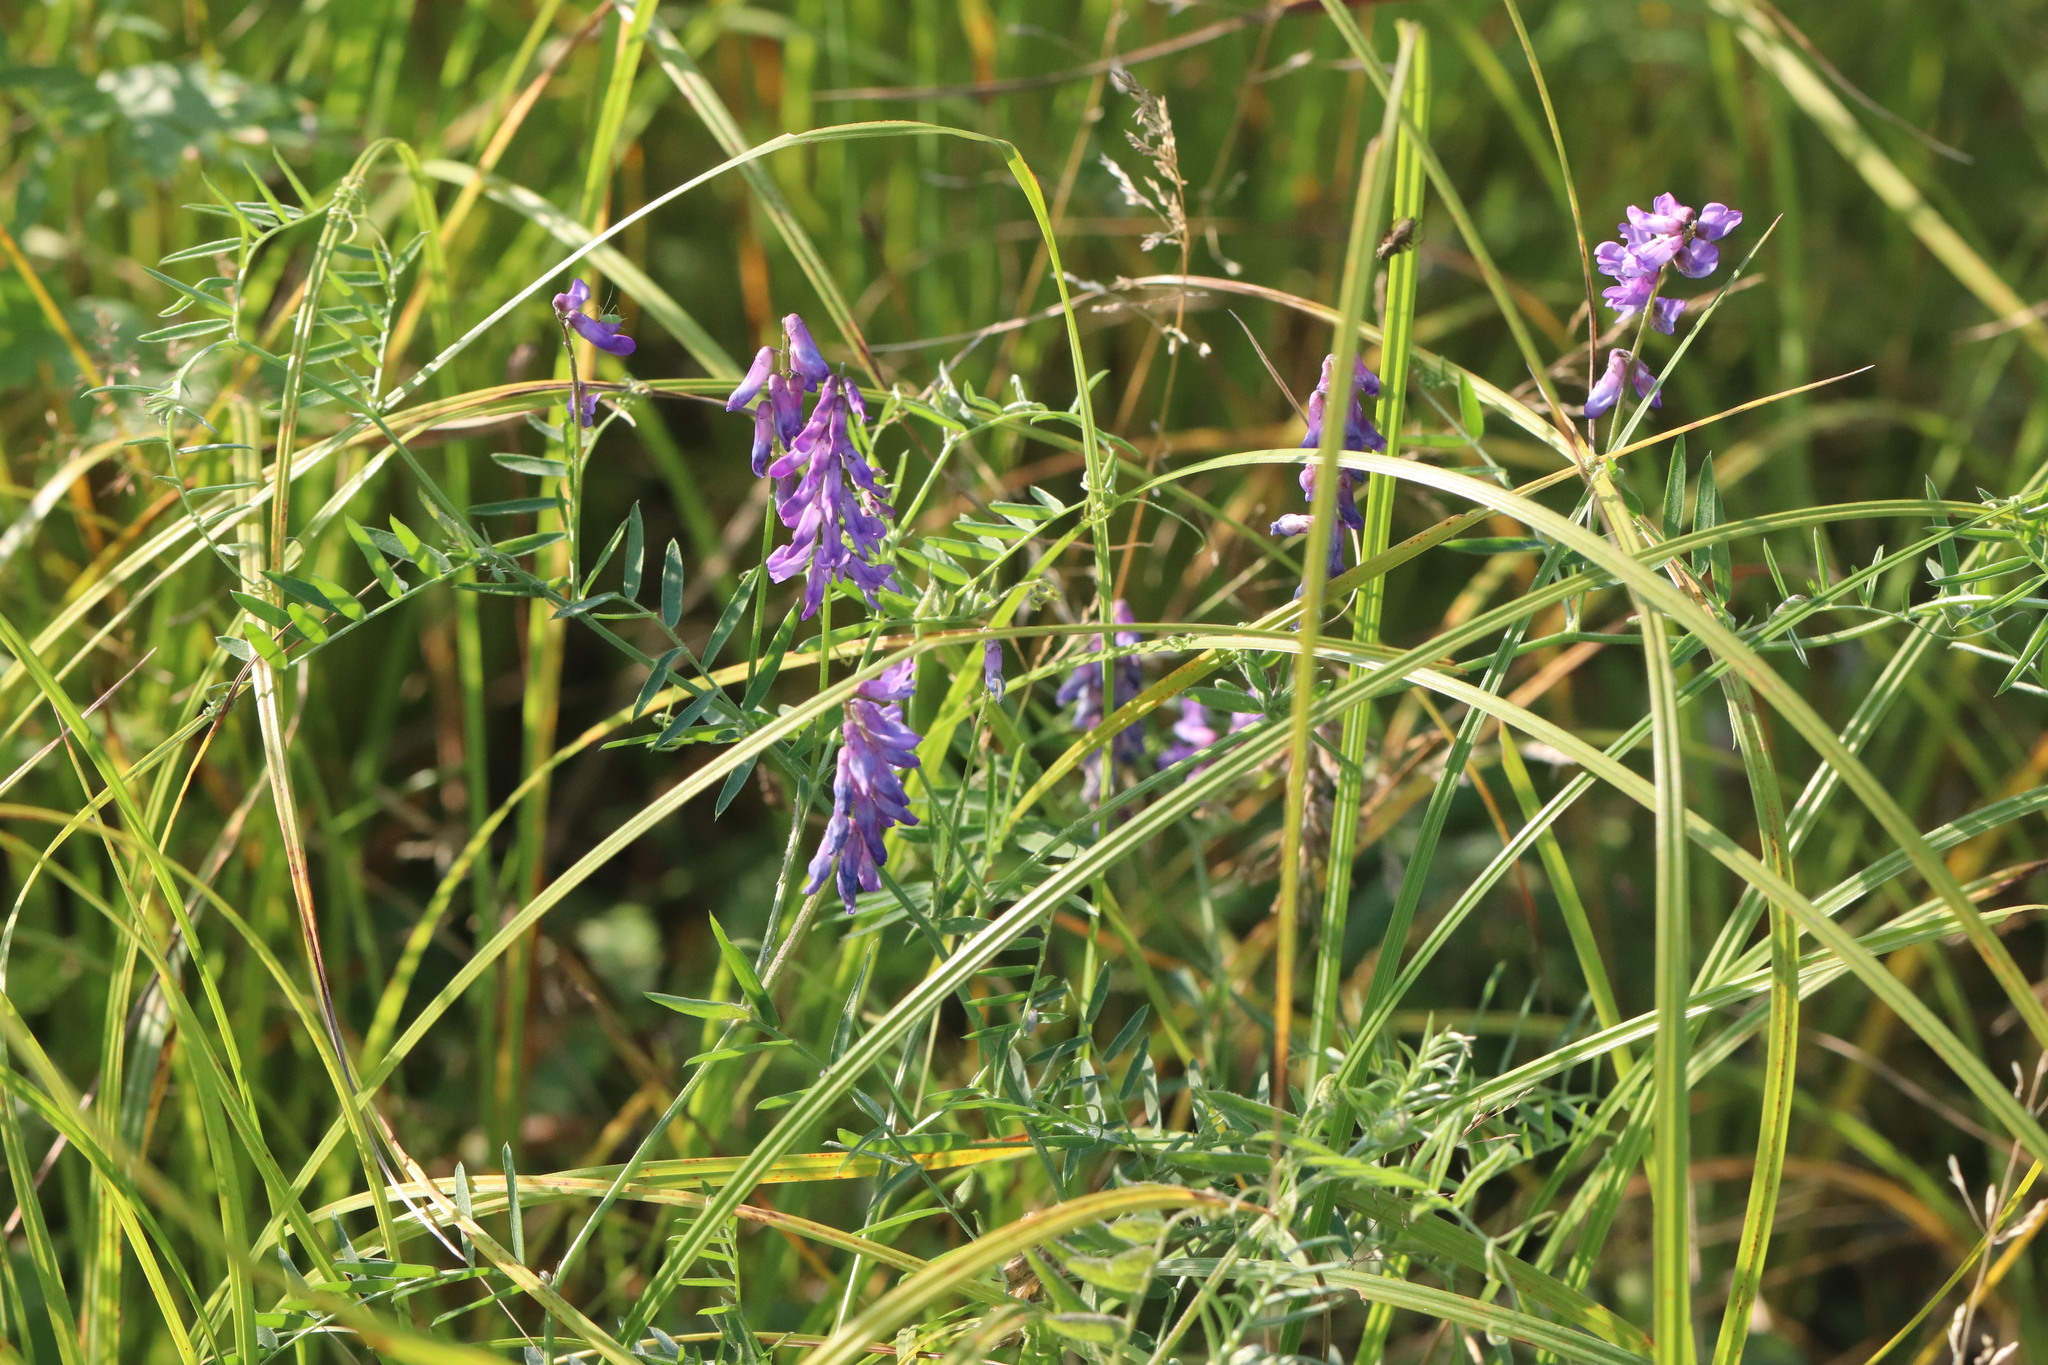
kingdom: Plantae
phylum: Tracheophyta
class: Magnoliopsida
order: Fabales
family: Fabaceae
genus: Vicia
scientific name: Vicia cracca
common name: Bird vetch
